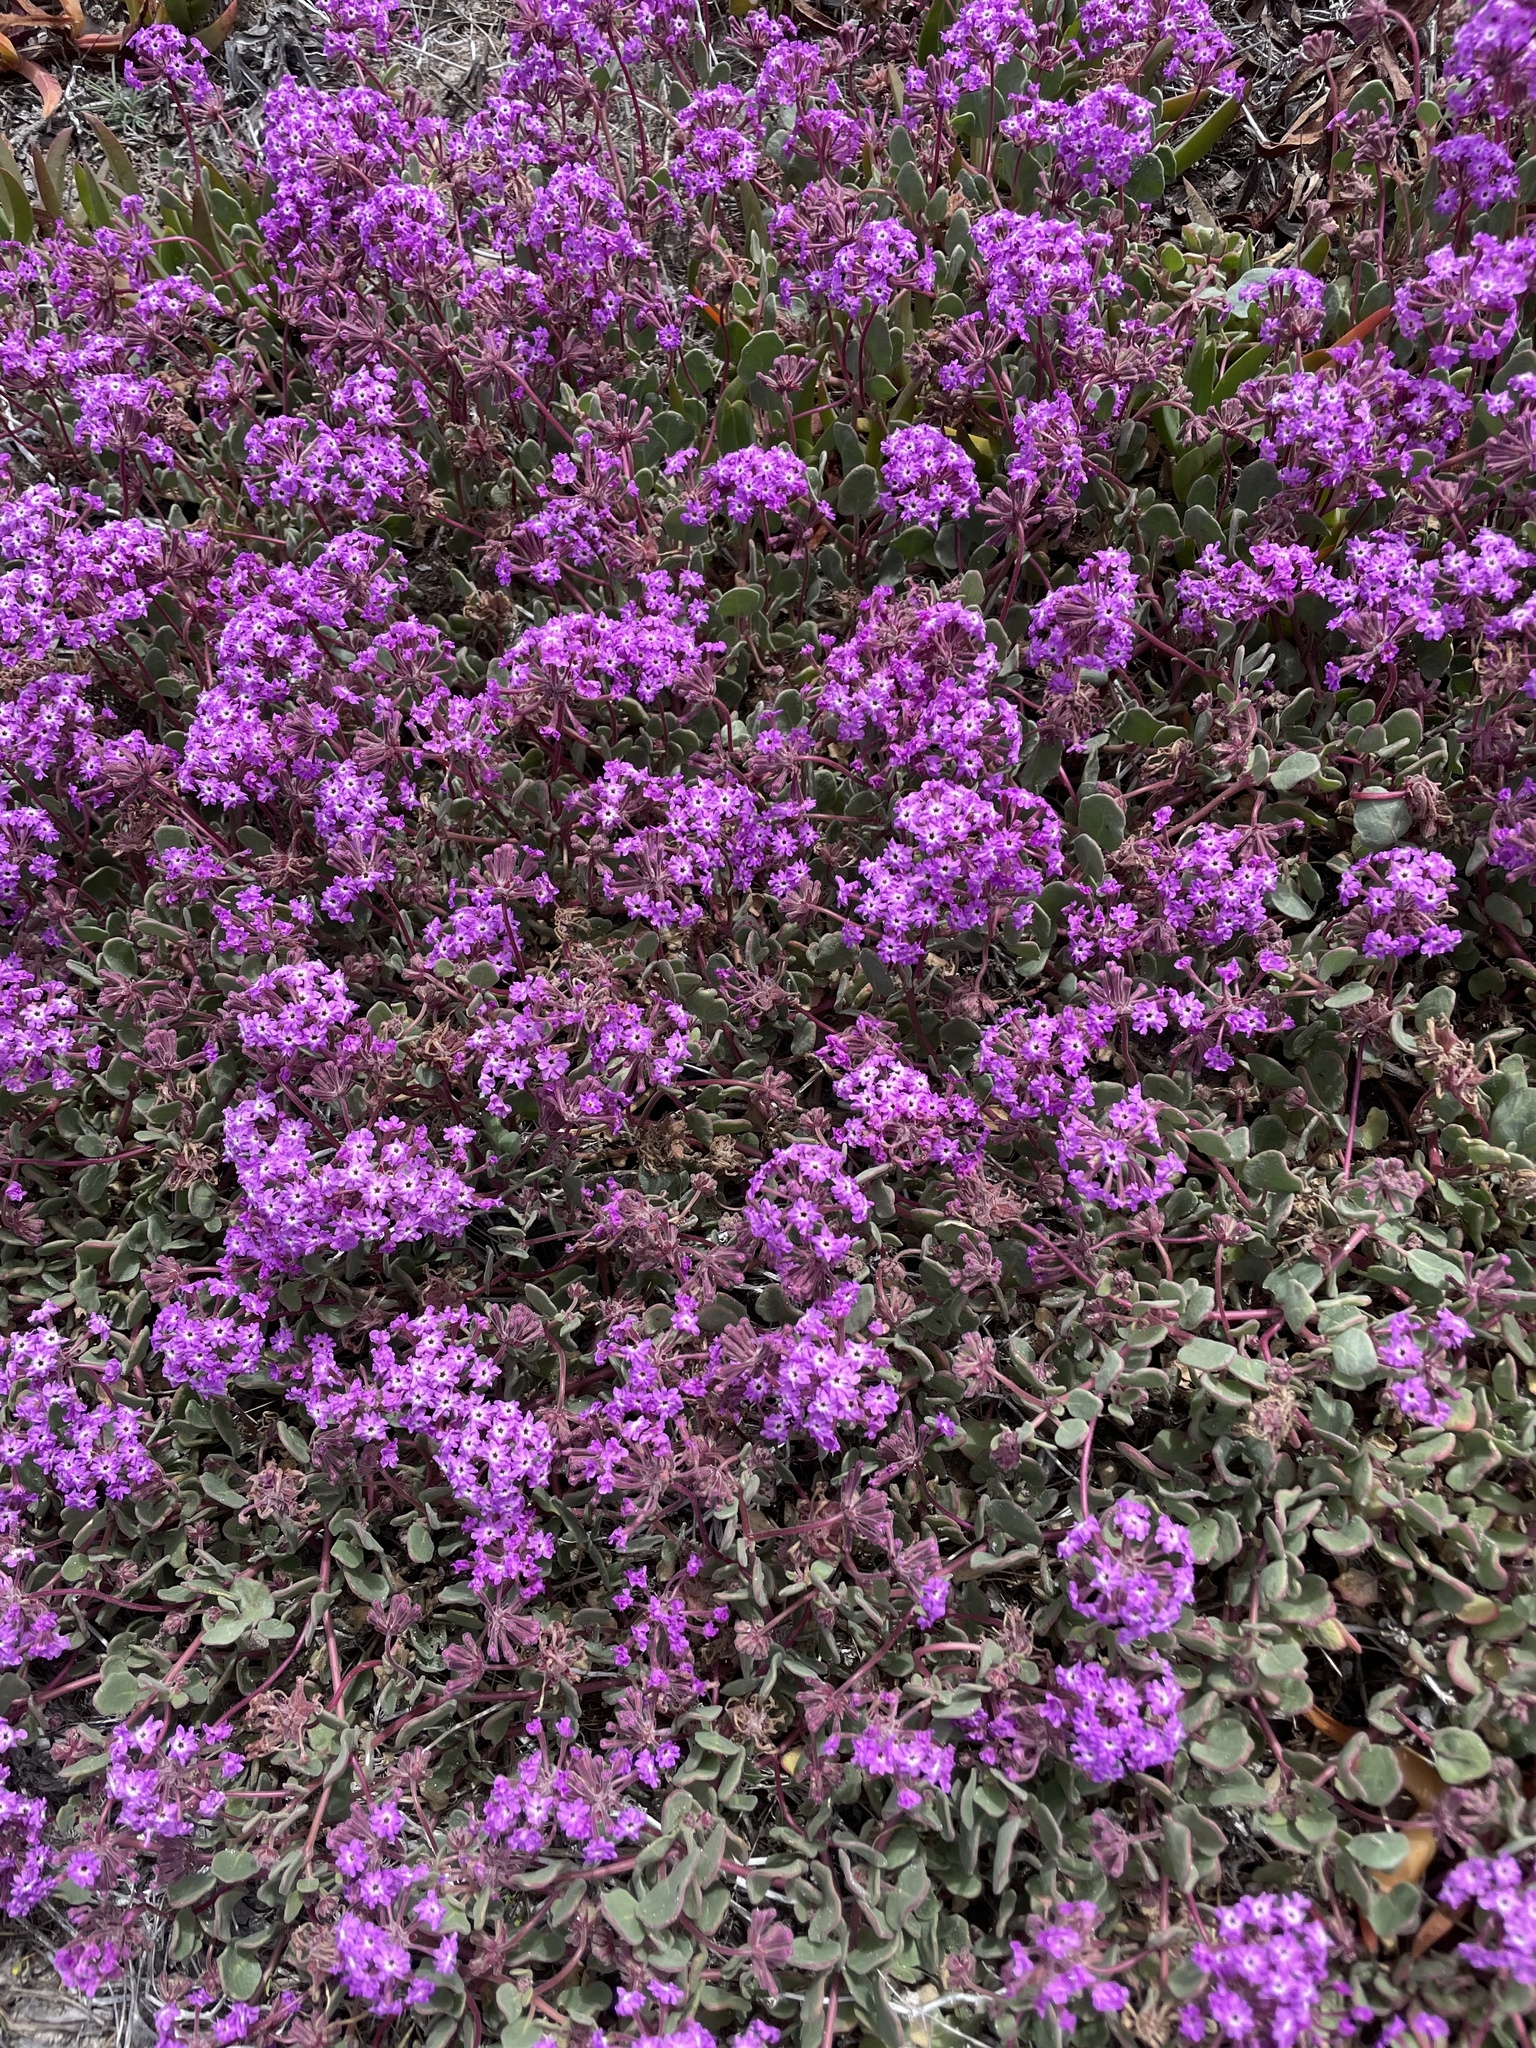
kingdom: Plantae
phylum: Tracheophyta
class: Magnoliopsida
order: Caryophyllales
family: Nyctaginaceae
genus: Abronia
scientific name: Abronia umbellata
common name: Sand-verbena
